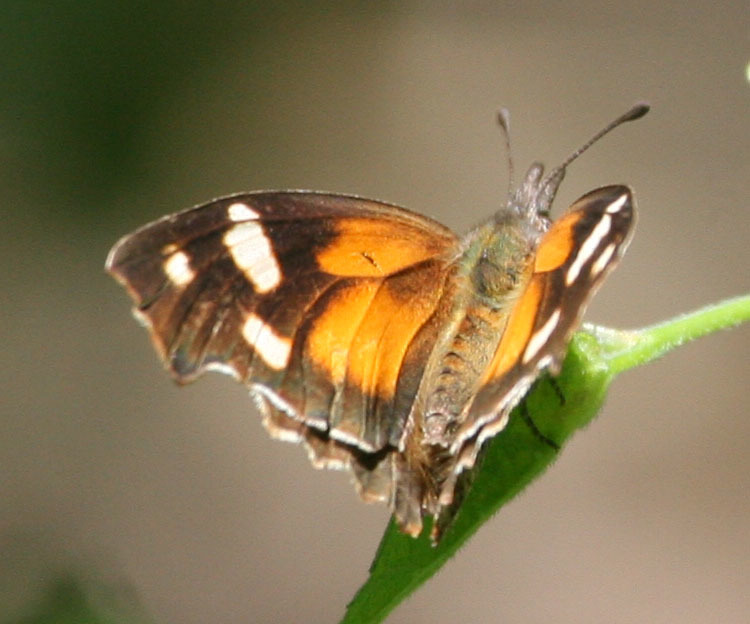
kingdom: Animalia
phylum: Arthropoda
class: Insecta
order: Lepidoptera
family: Nymphalidae
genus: Libytheana
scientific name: Libytheana carinenta
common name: American snout
